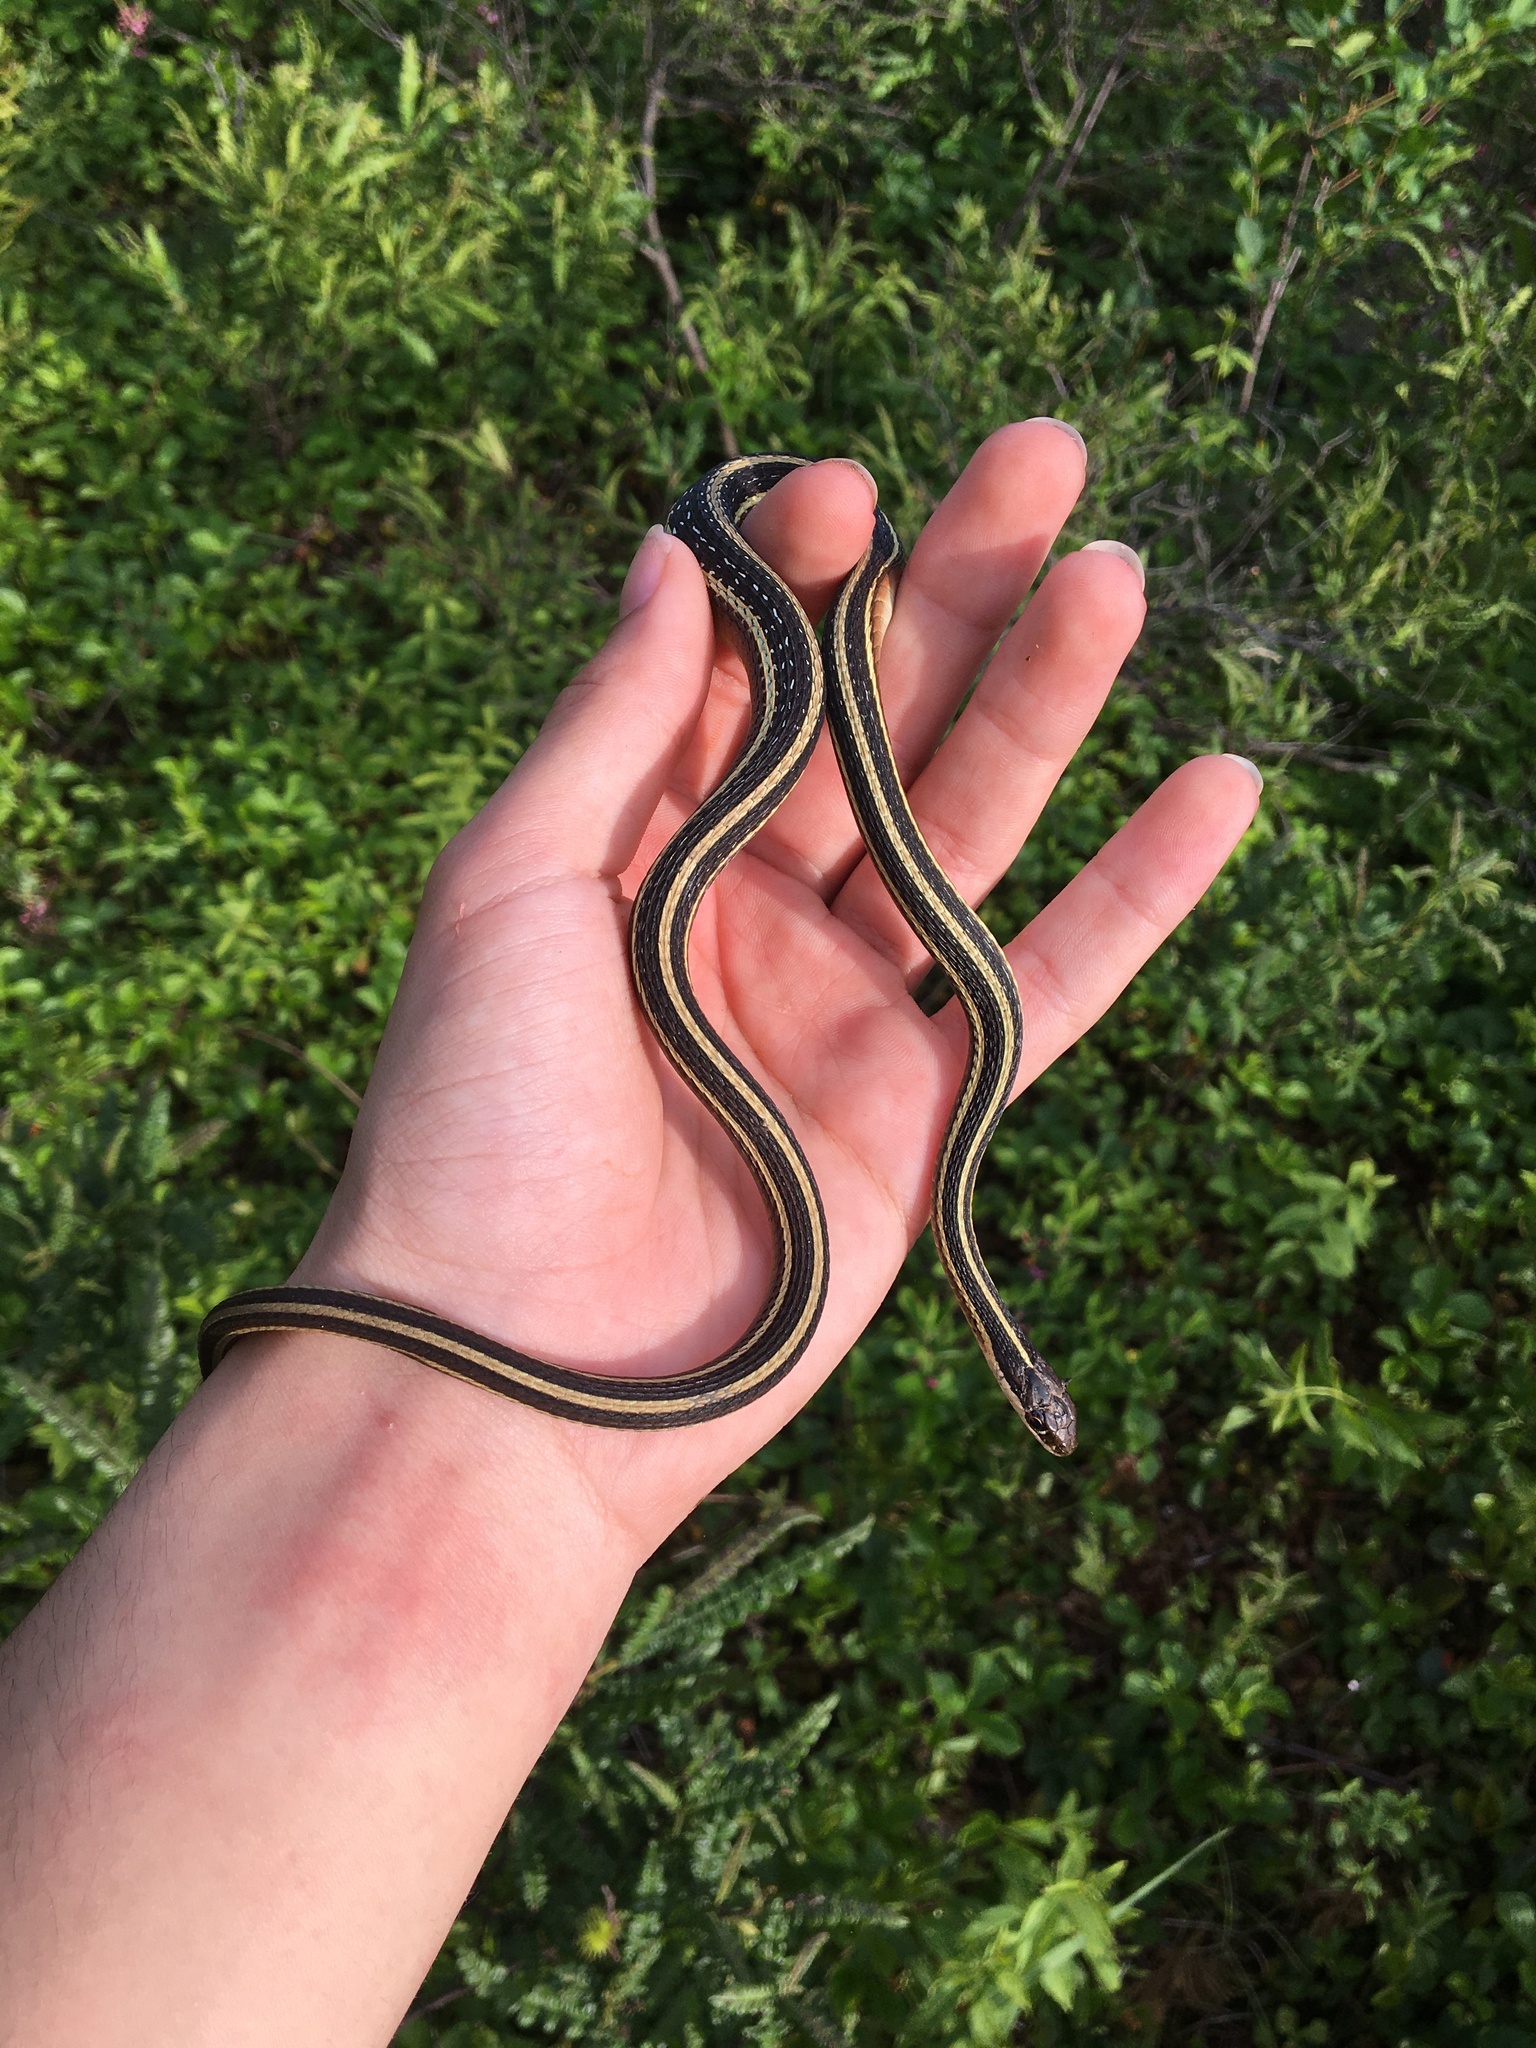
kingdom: Animalia
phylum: Chordata
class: Squamata
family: Colubridae
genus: Thamnophis
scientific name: Thamnophis saurita
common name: Eastern ribbonsnake
